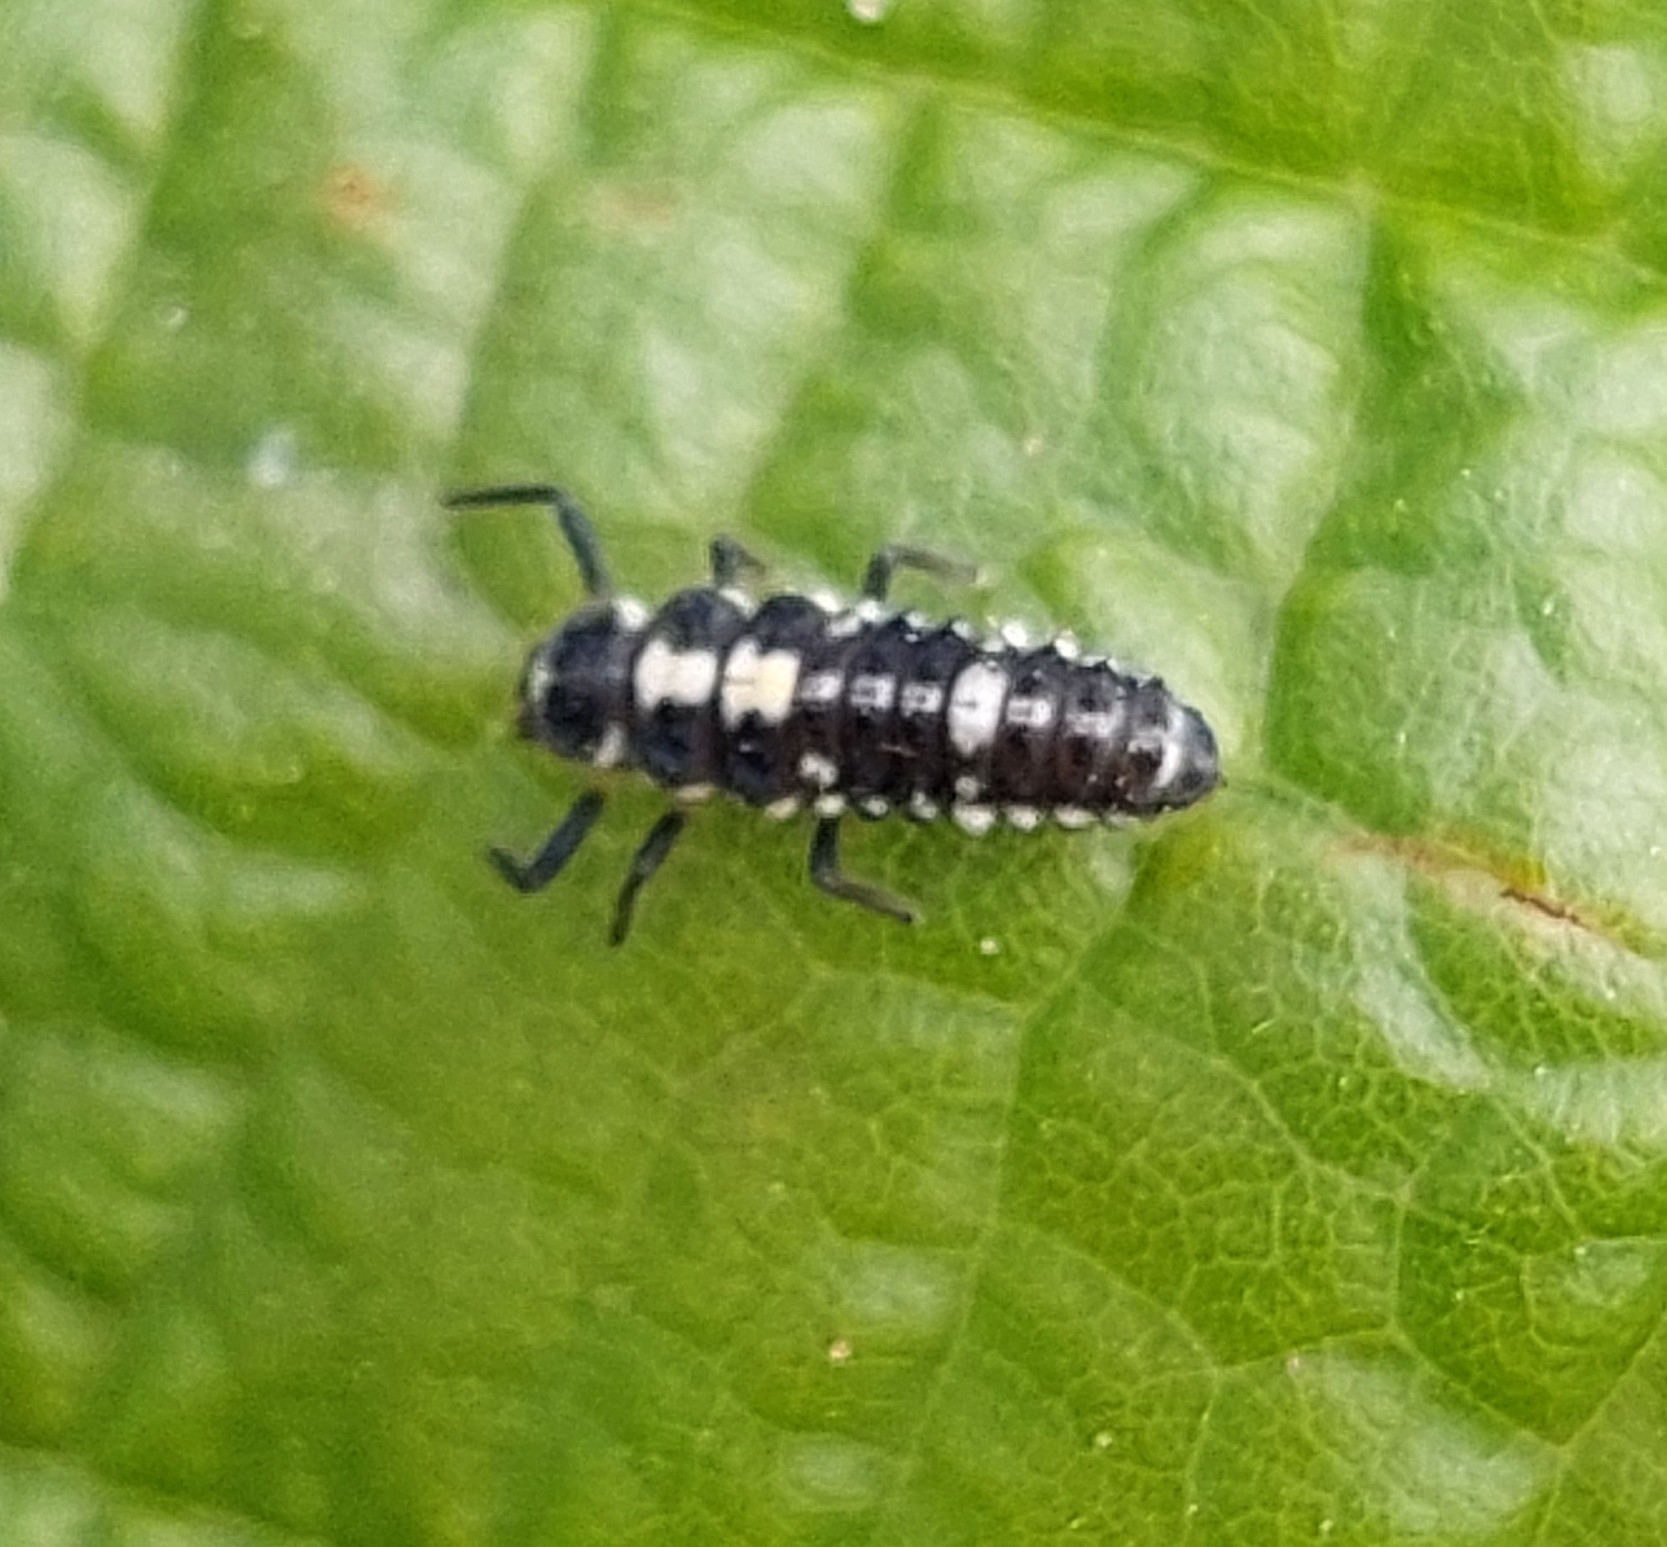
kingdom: Animalia
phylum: Arthropoda
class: Insecta
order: Coleoptera
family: Coccinellidae
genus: Propylaea
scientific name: Propylaea quatuordecimpunctata
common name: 14-spotted ladybird beetle
